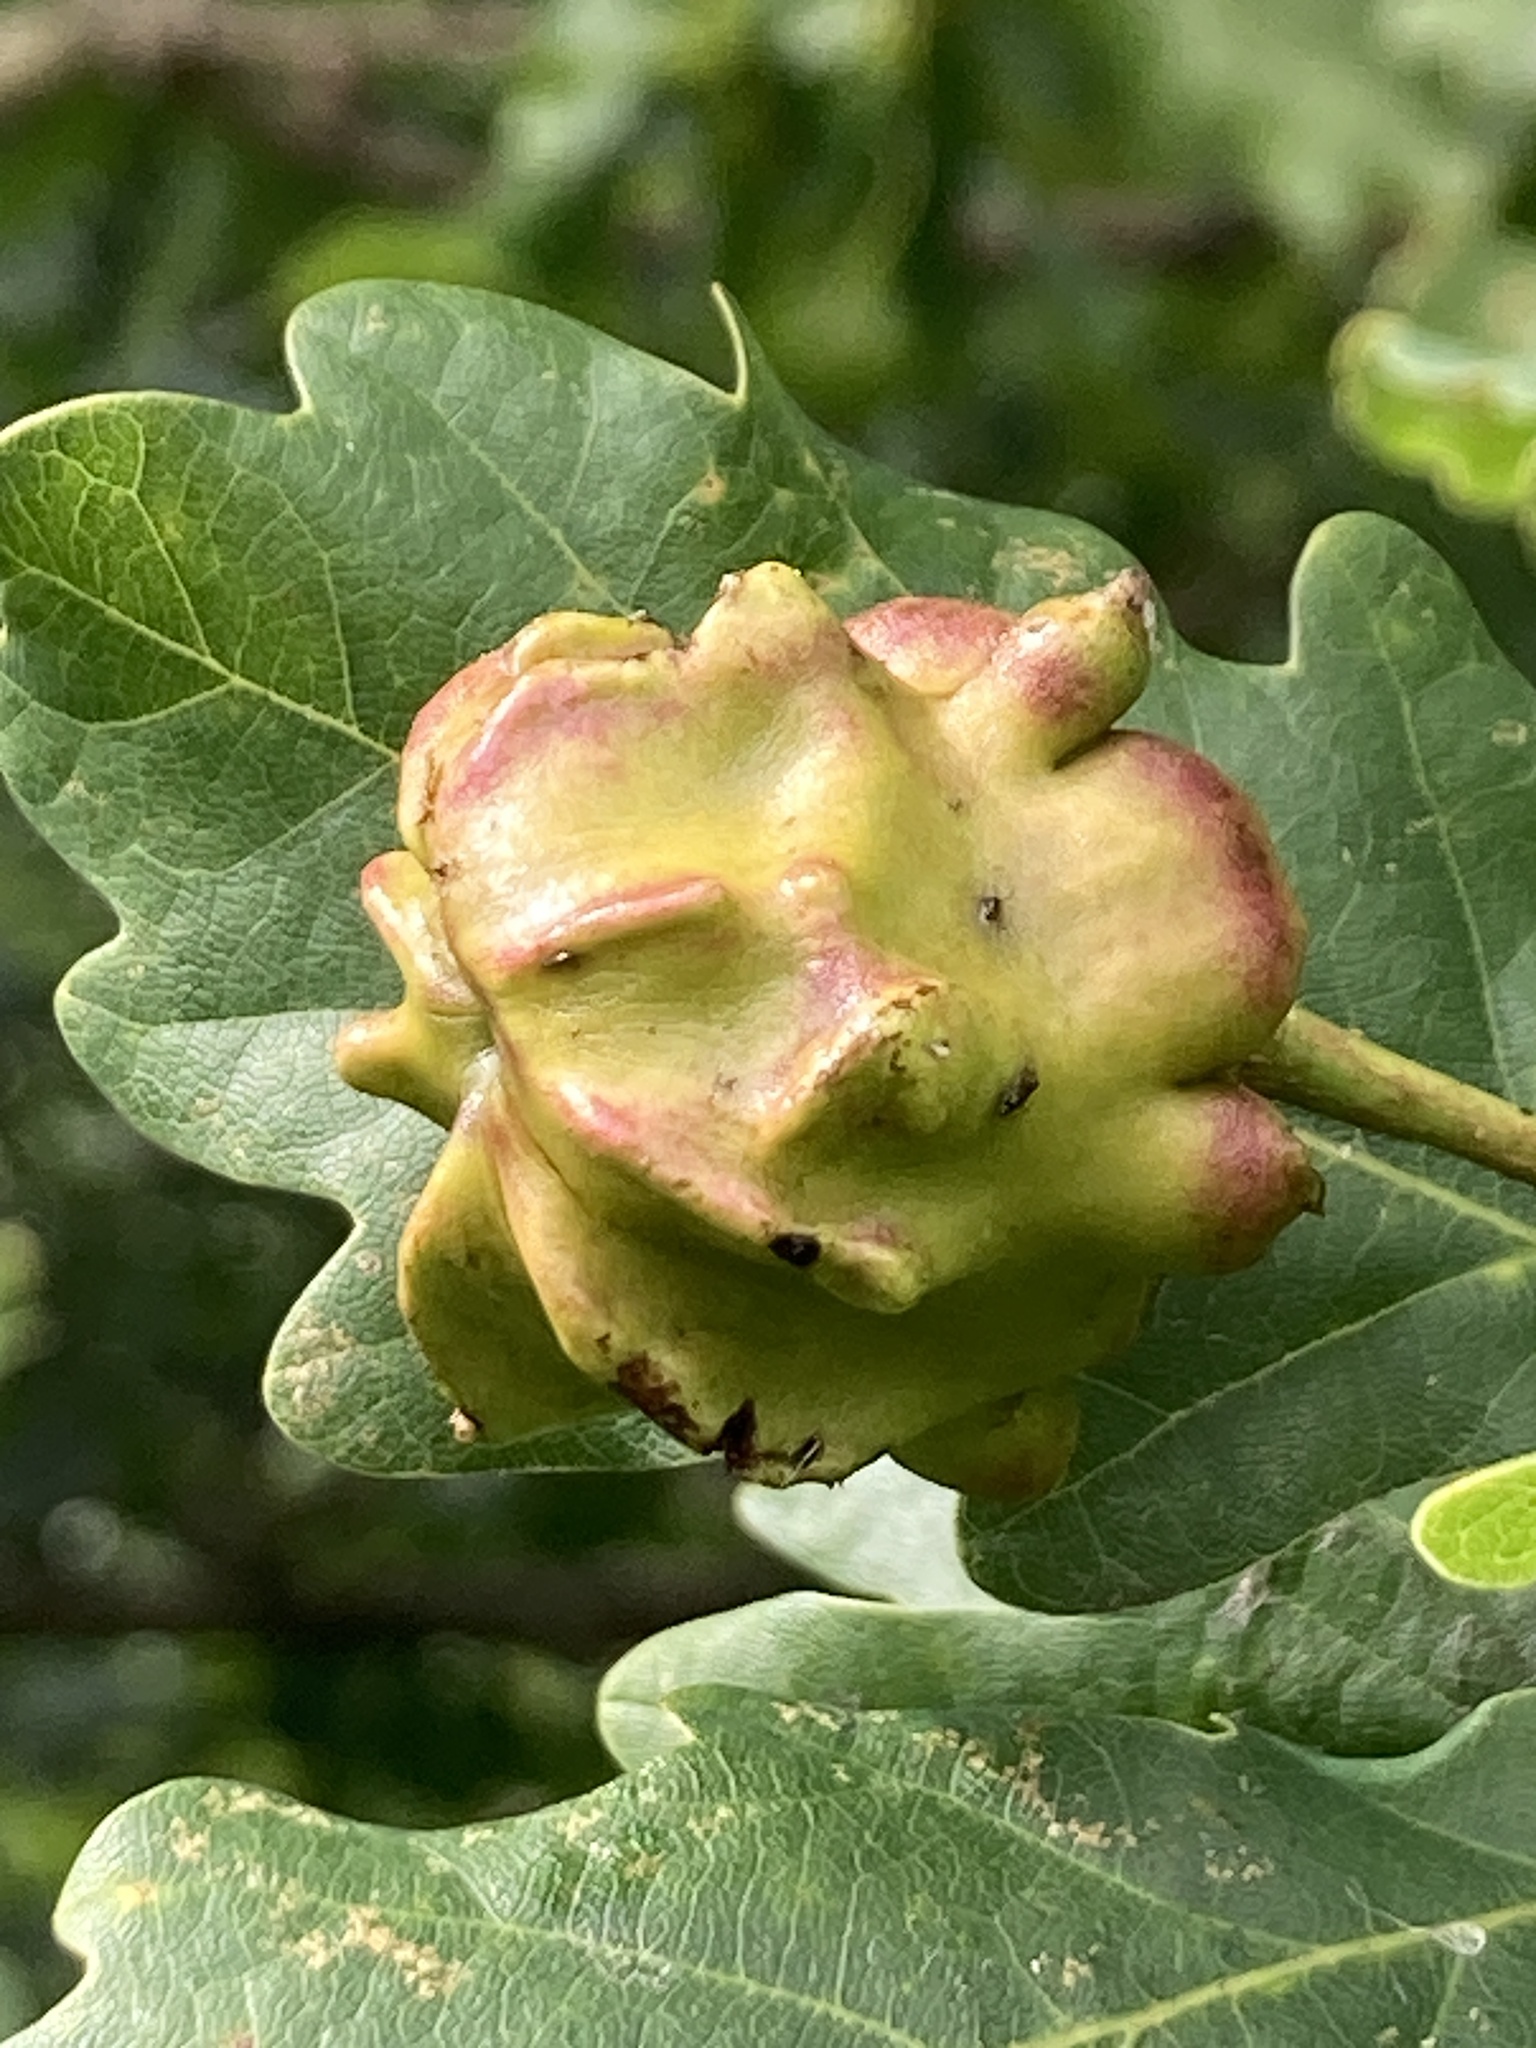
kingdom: Animalia
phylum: Arthropoda
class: Insecta
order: Hymenoptera
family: Cynipidae
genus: Andricus
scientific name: Andricus quercuscalicis
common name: Knopper gall
